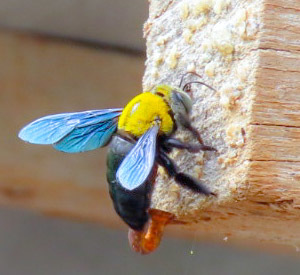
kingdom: Animalia
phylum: Arthropoda
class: Insecta
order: Hymenoptera
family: Apidae
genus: Xylocopa
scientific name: Xylocopa minor
